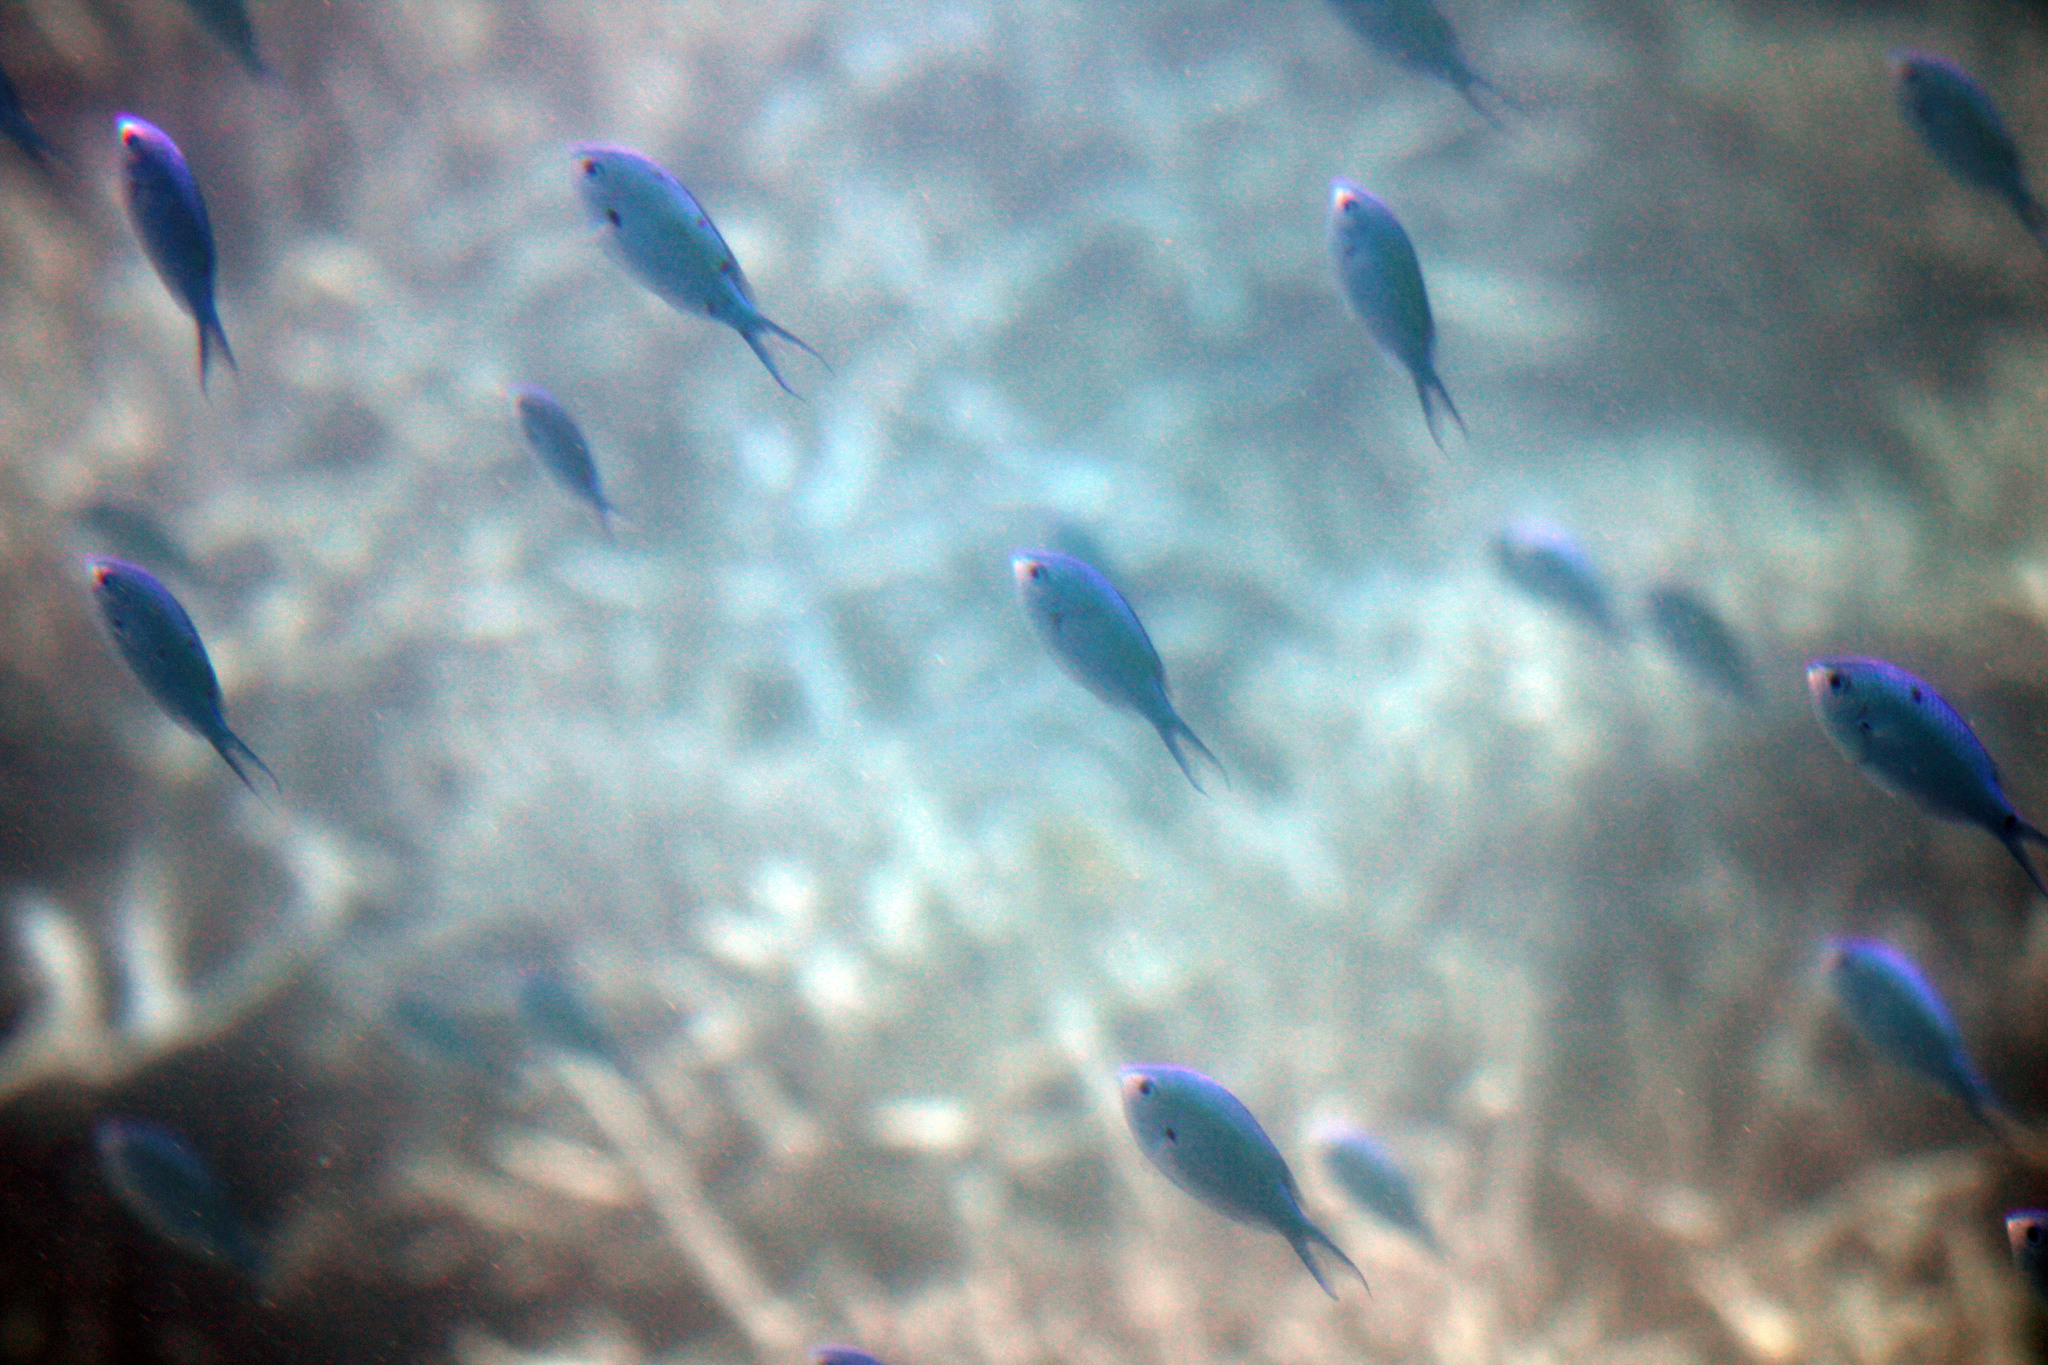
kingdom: Animalia
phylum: Chordata
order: Perciformes
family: Pomacentridae
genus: Chromis
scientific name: Chromis atripectoralis
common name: Black-axil chromis
